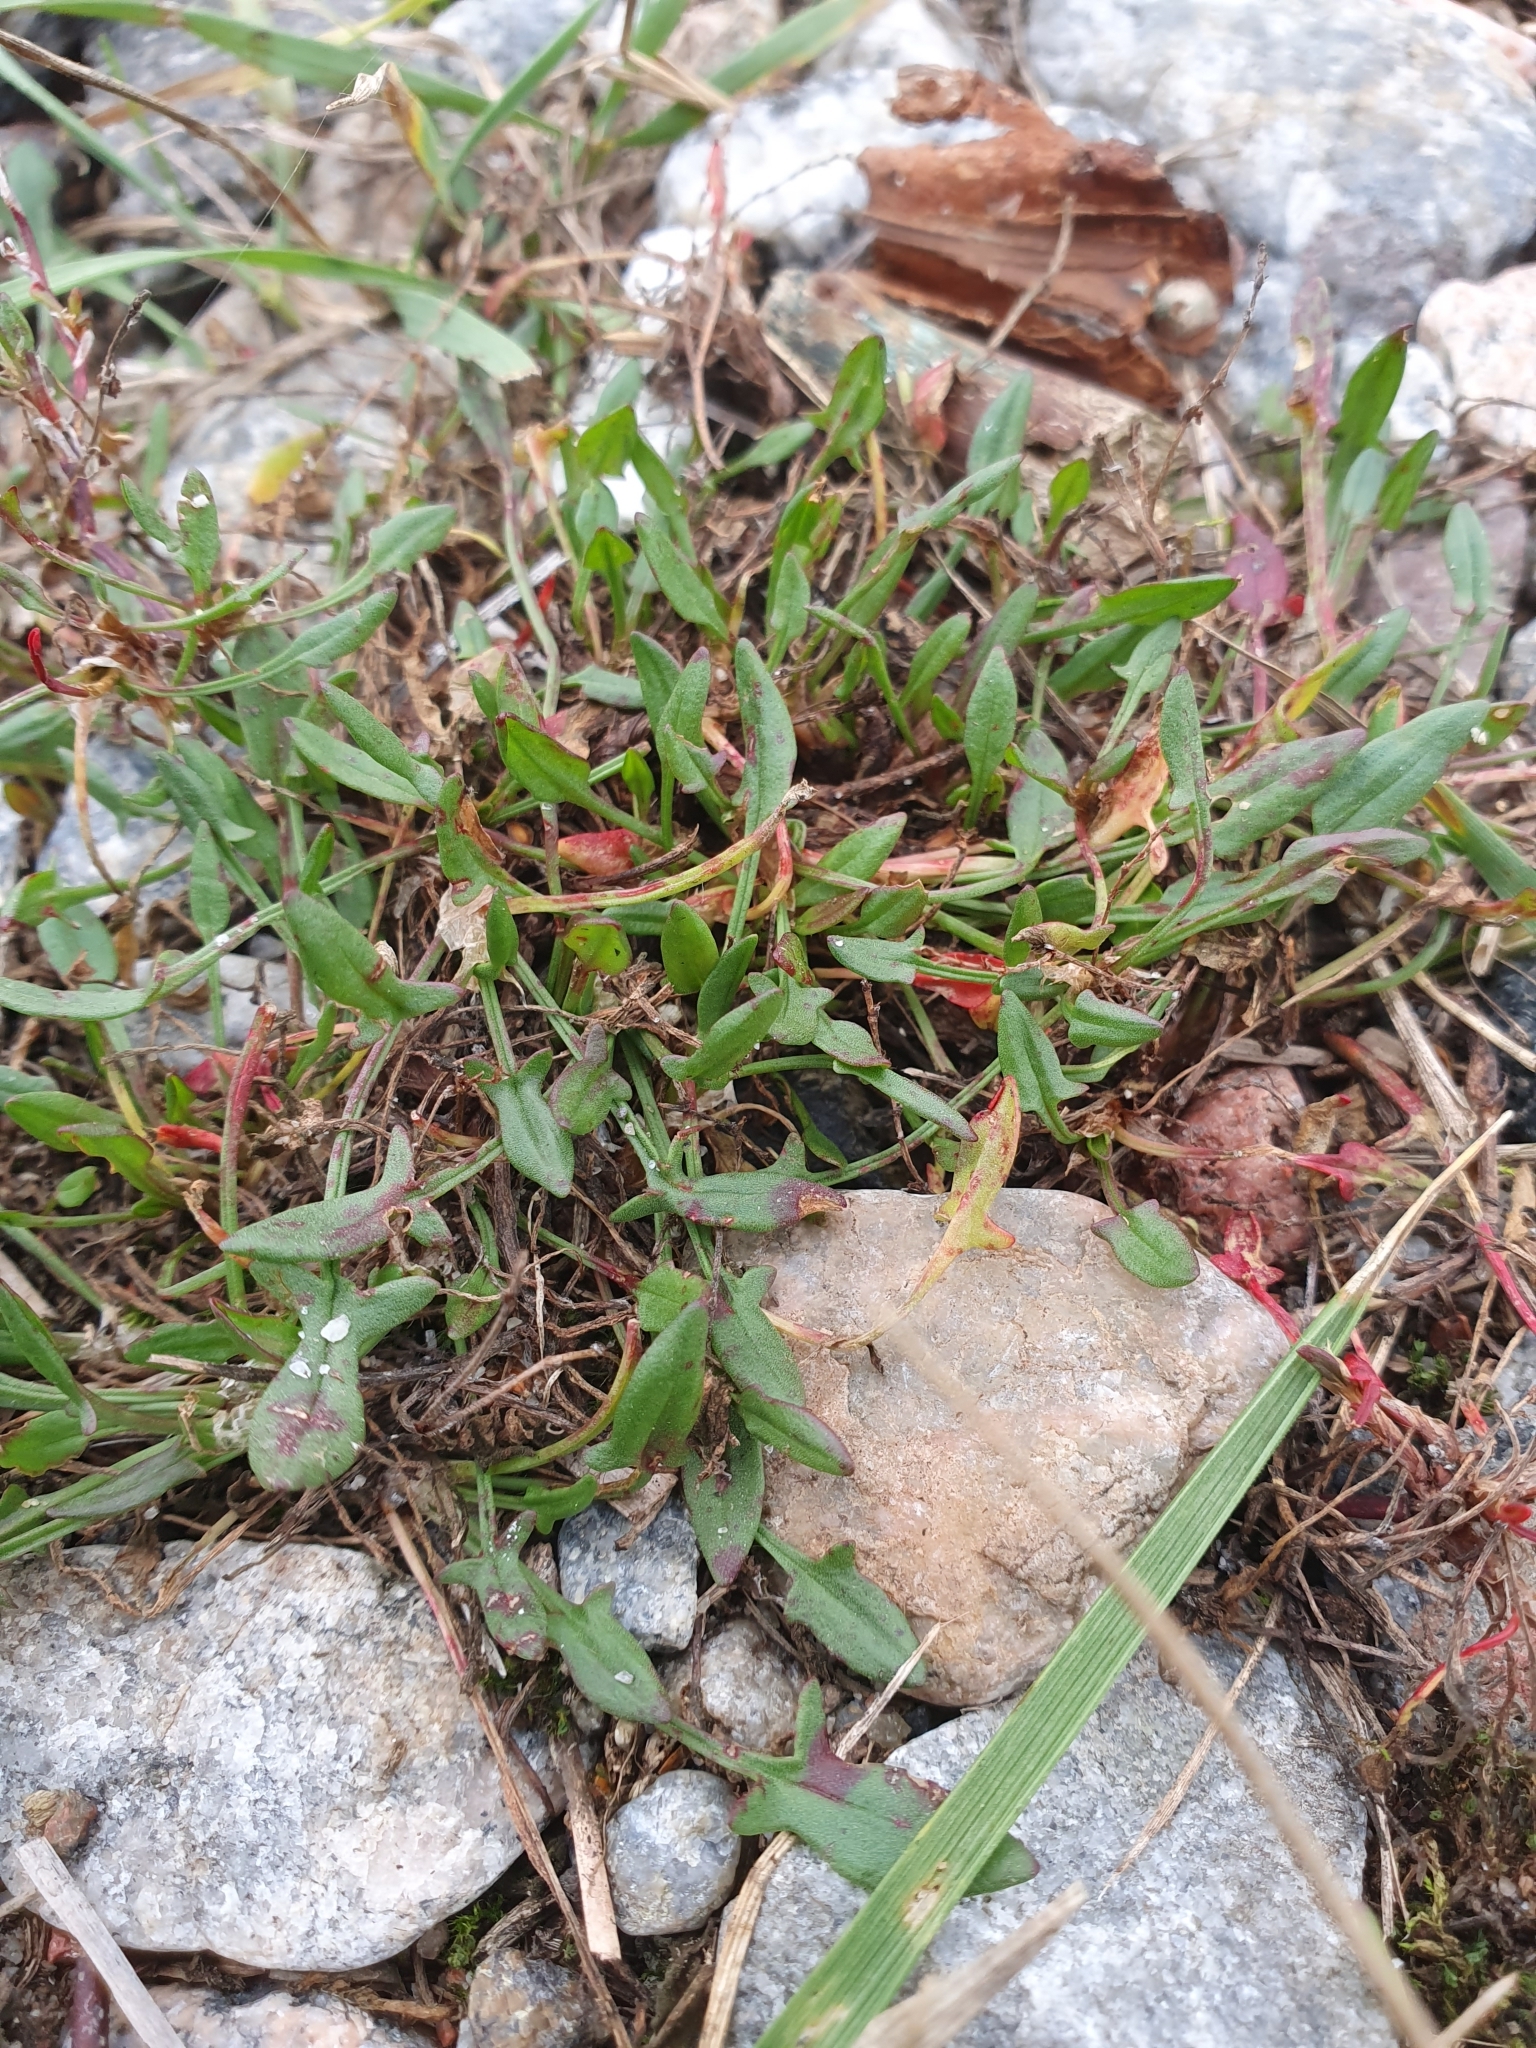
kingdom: Plantae
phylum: Tracheophyta
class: Magnoliopsida
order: Caryophyllales
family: Polygonaceae
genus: Rumex
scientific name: Rumex acetosella
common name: Common sheep sorrel
